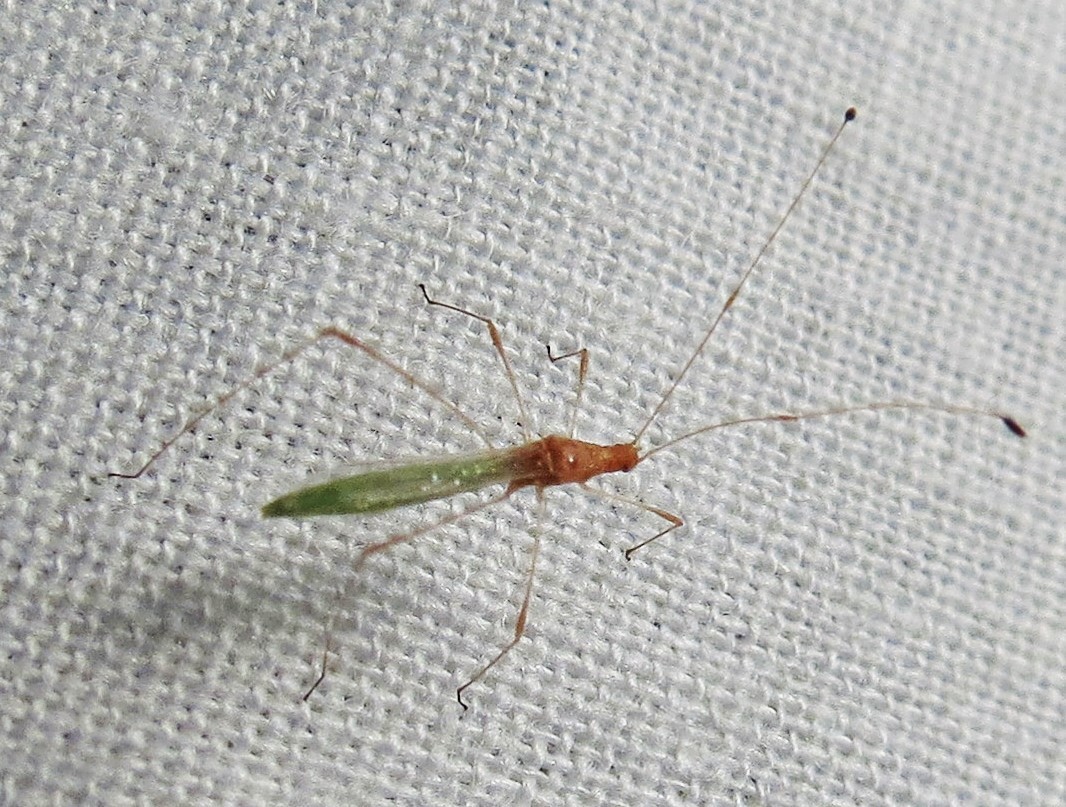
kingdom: Animalia
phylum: Arthropoda
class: Insecta
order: Hemiptera
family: Berytidae
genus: Metacanthus
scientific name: Metacanthus multispinus
